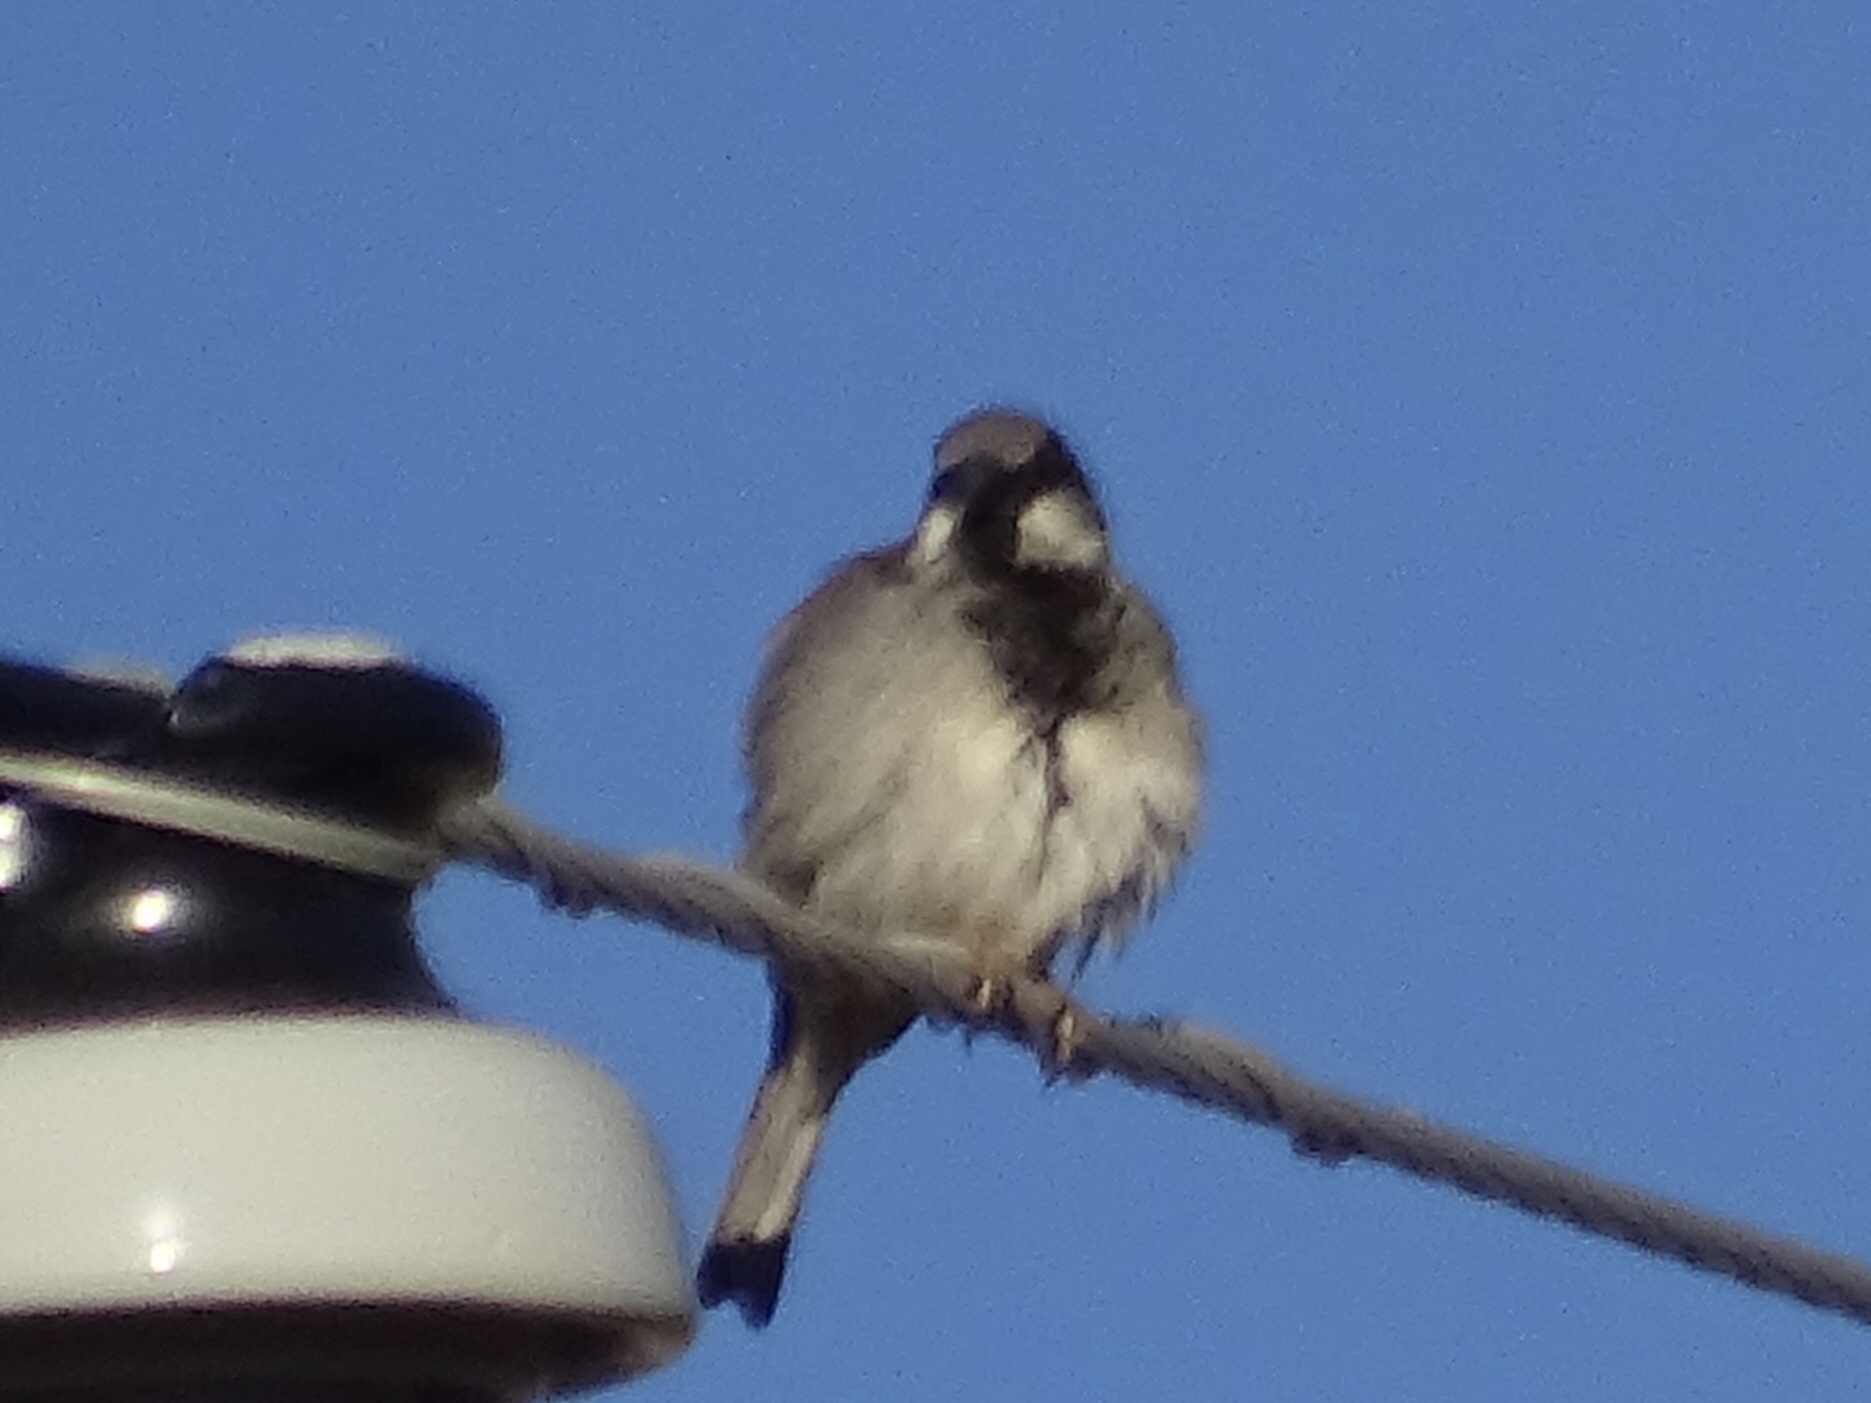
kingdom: Animalia
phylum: Chordata
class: Aves
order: Passeriformes
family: Passeridae
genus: Passer
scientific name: Passer domesticus
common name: House sparrow
